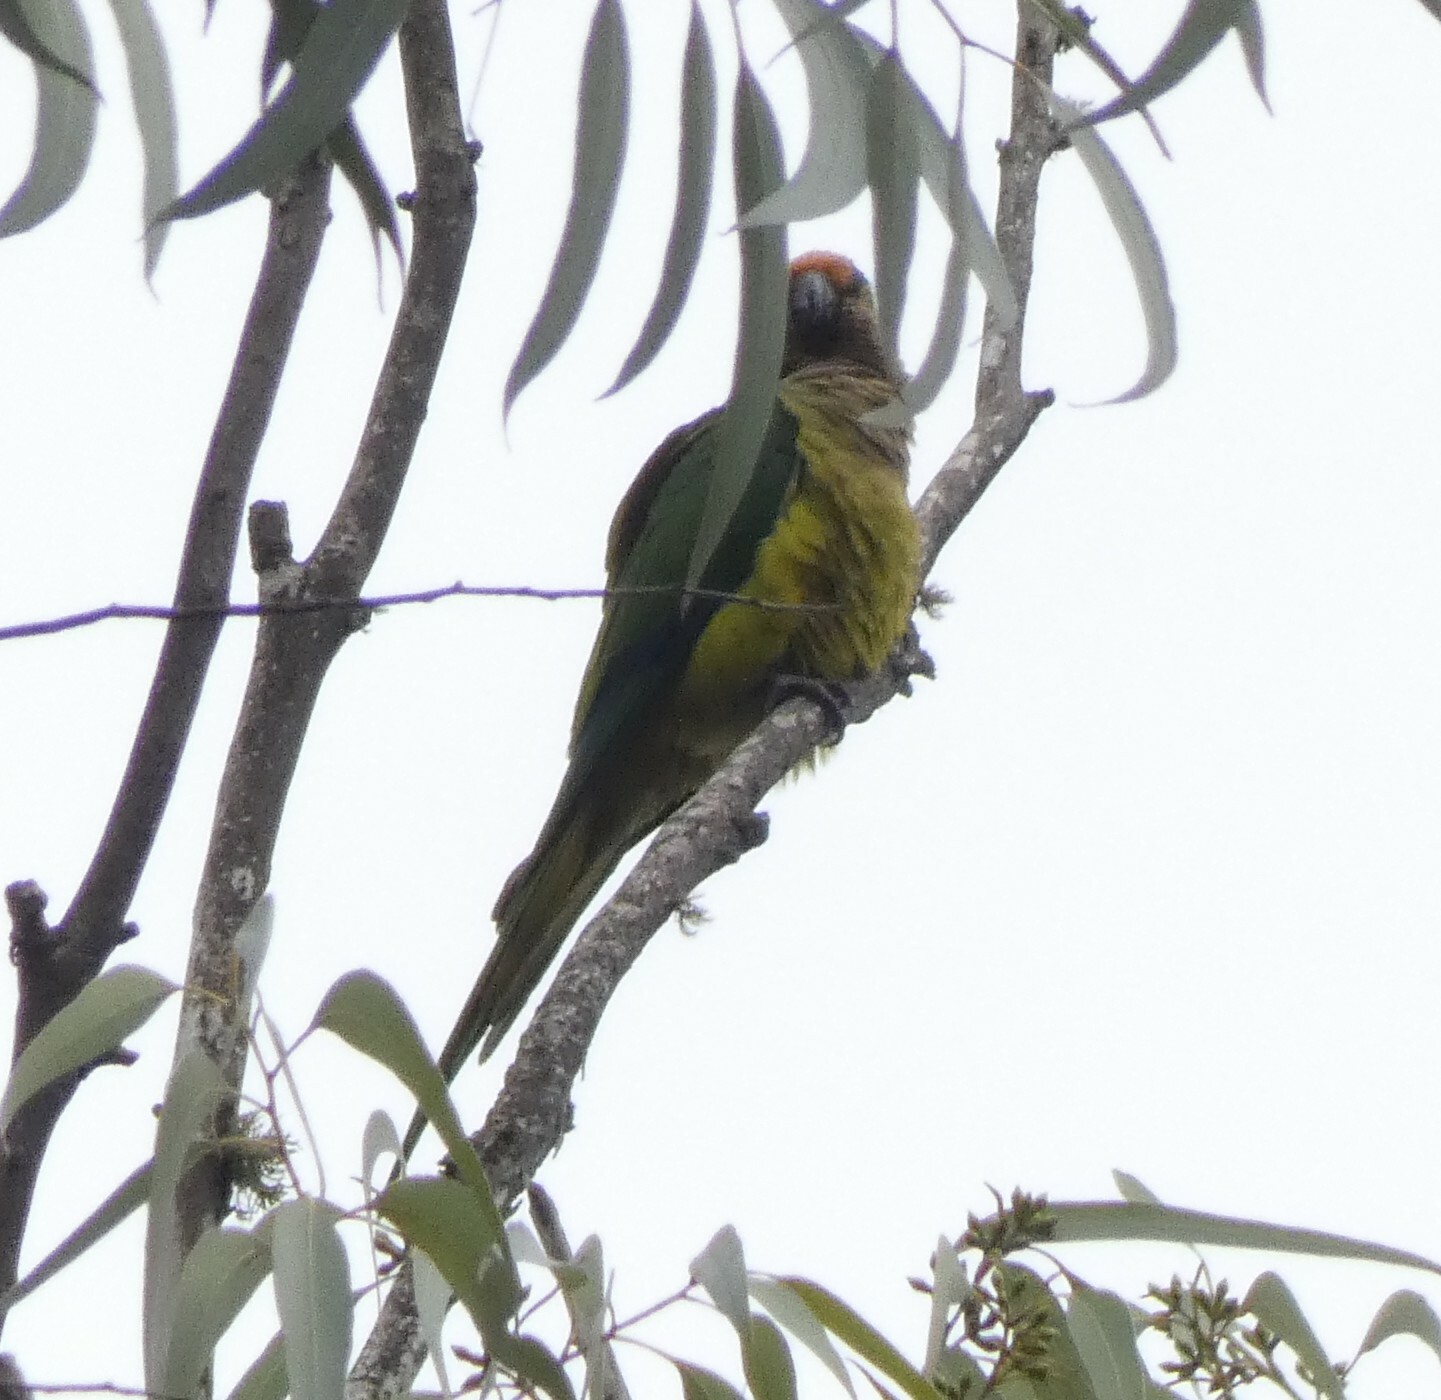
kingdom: Animalia
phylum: Chordata
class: Aves
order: Psittaciformes
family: Psittacidae
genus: Aratinga
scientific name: Aratinga aurea
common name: Peach-fronted parakeet
